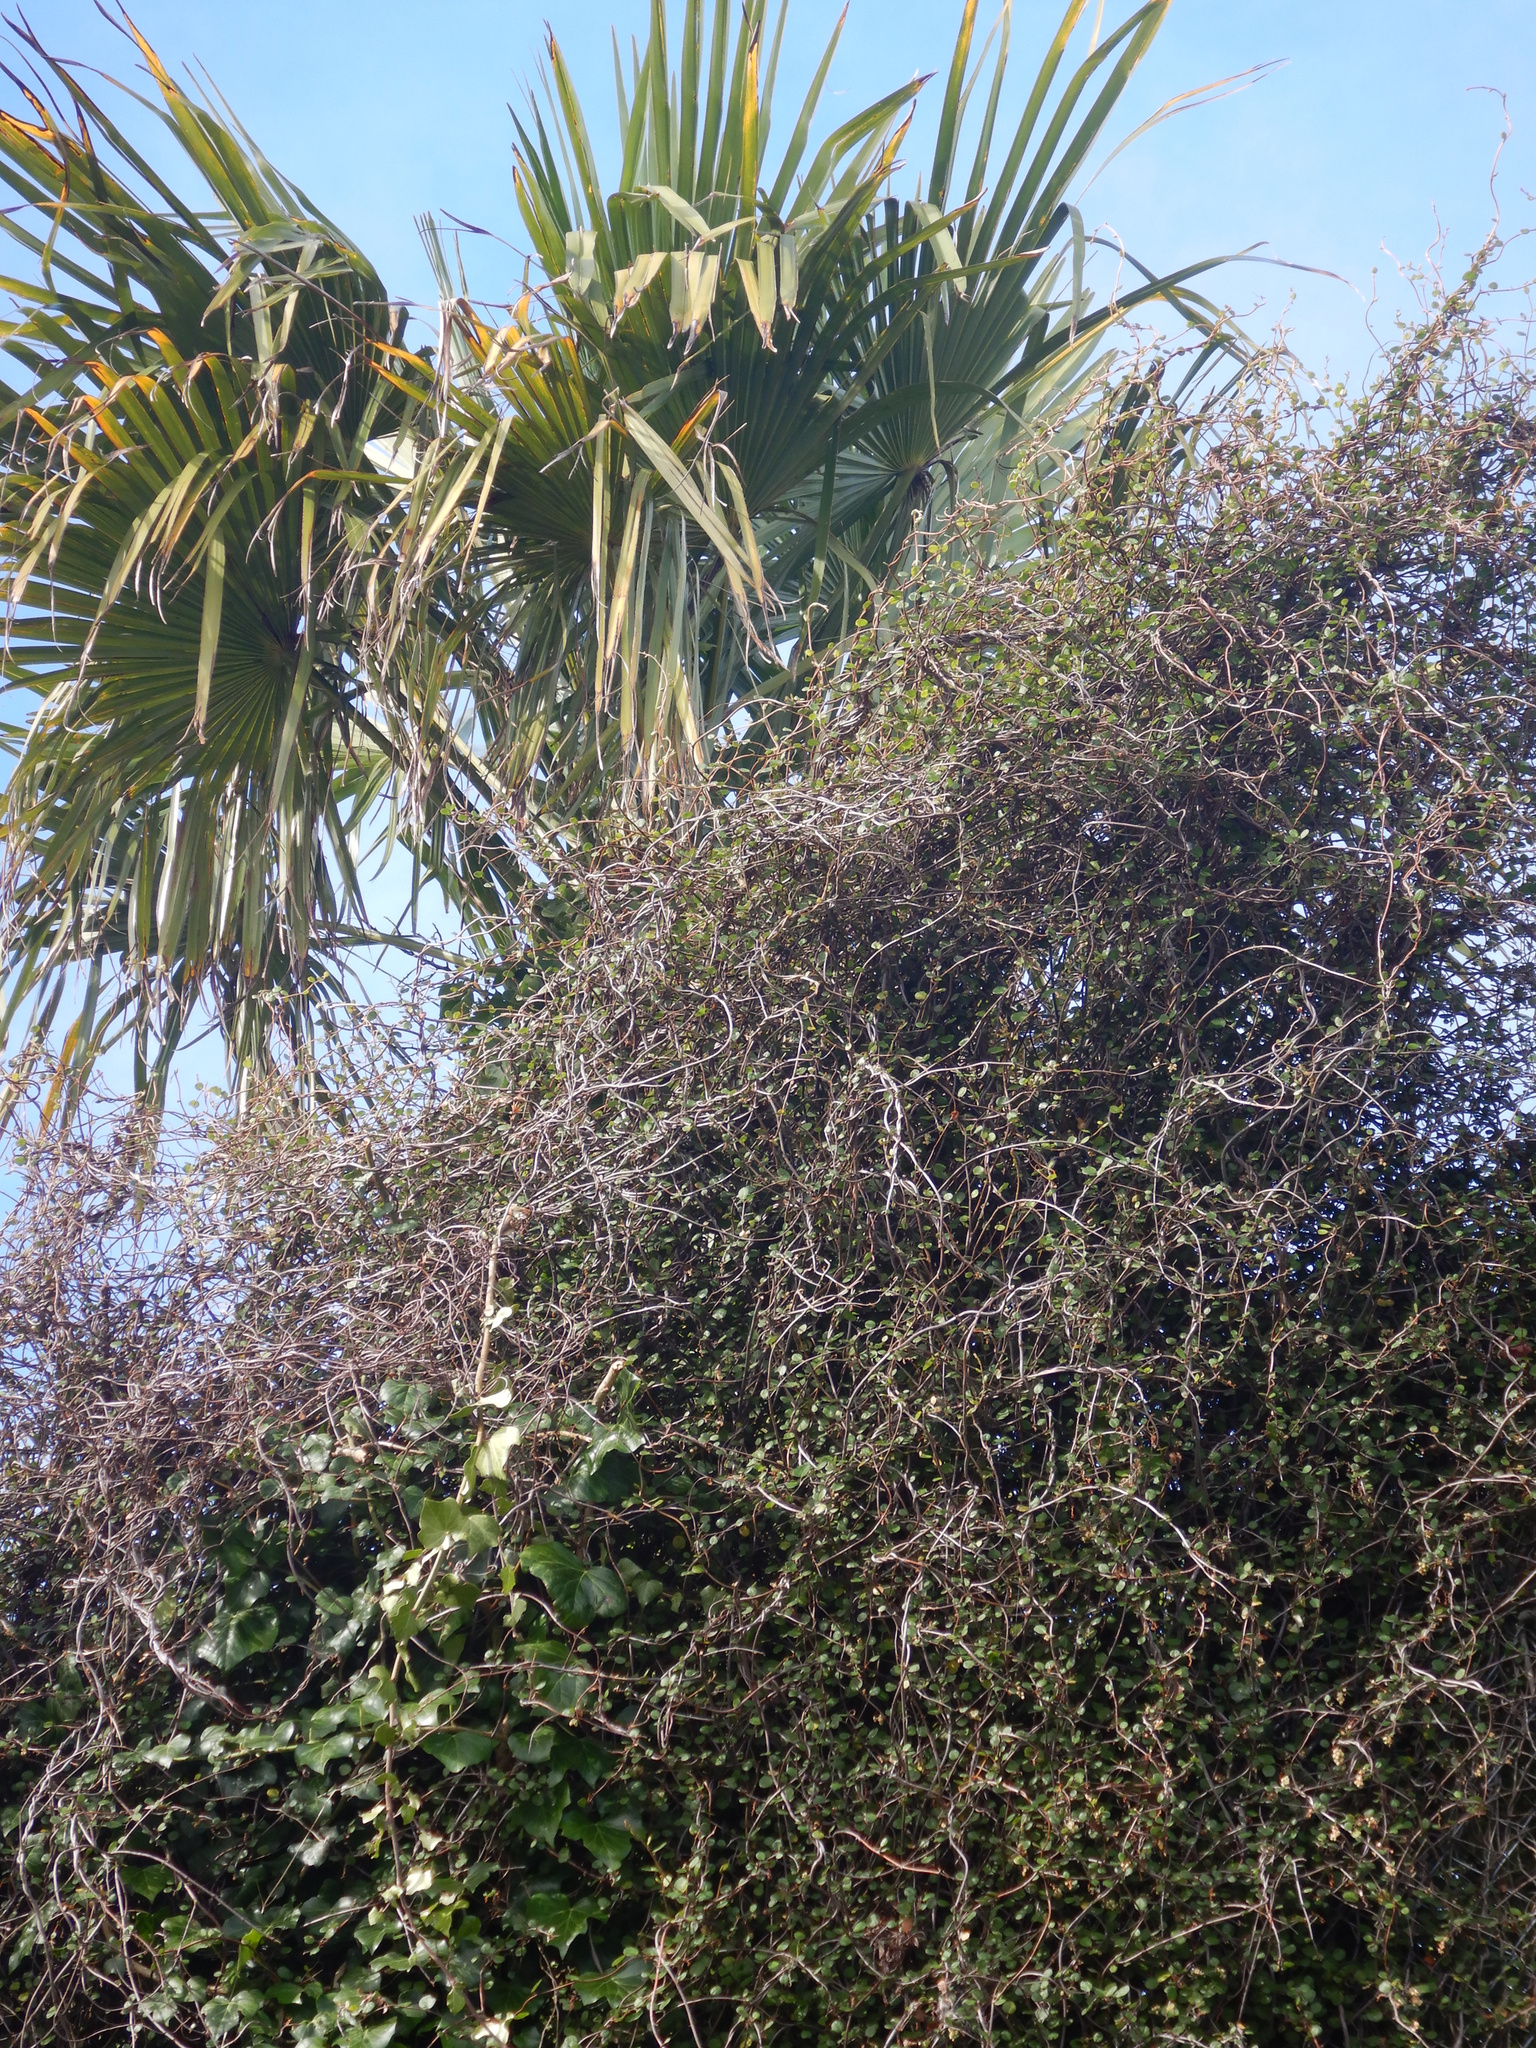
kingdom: Plantae
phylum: Tracheophyta
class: Magnoliopsida
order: Caryophyllales
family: Polygonaceae
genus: Muehlenbeckia
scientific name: Muehlenbeckia complexa
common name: Wireplant
